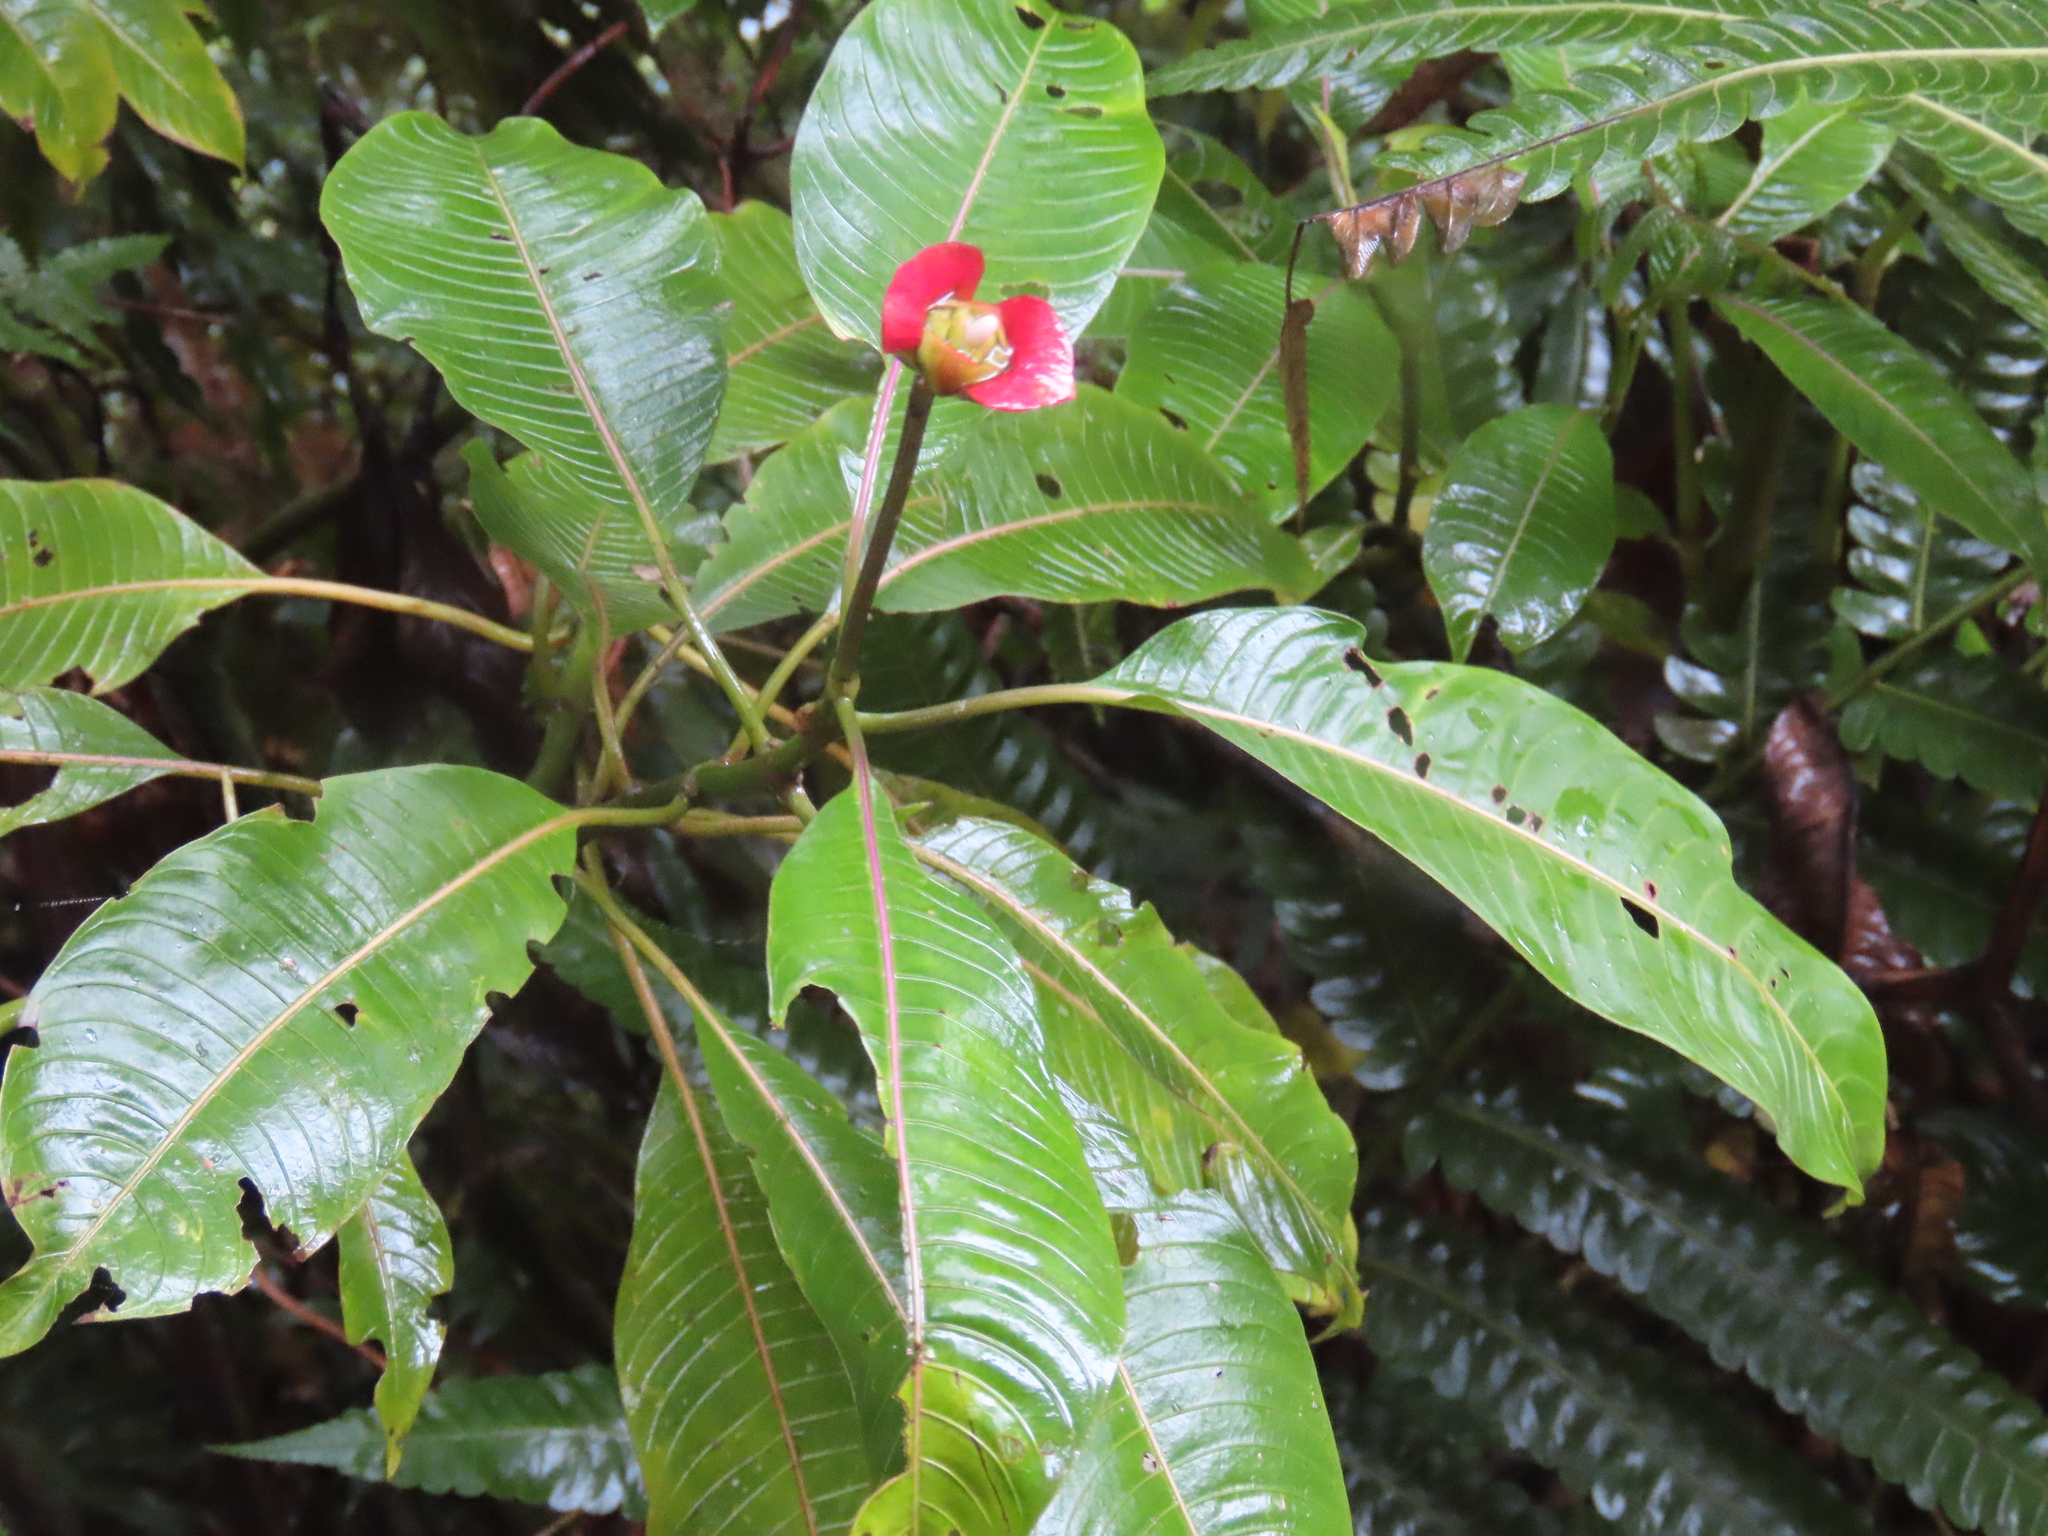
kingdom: Plantae
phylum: Tracheophyta
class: Magnoliopsida
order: Gentianales
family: Rubiaceae
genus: Palicourea
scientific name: Palicourea elata
